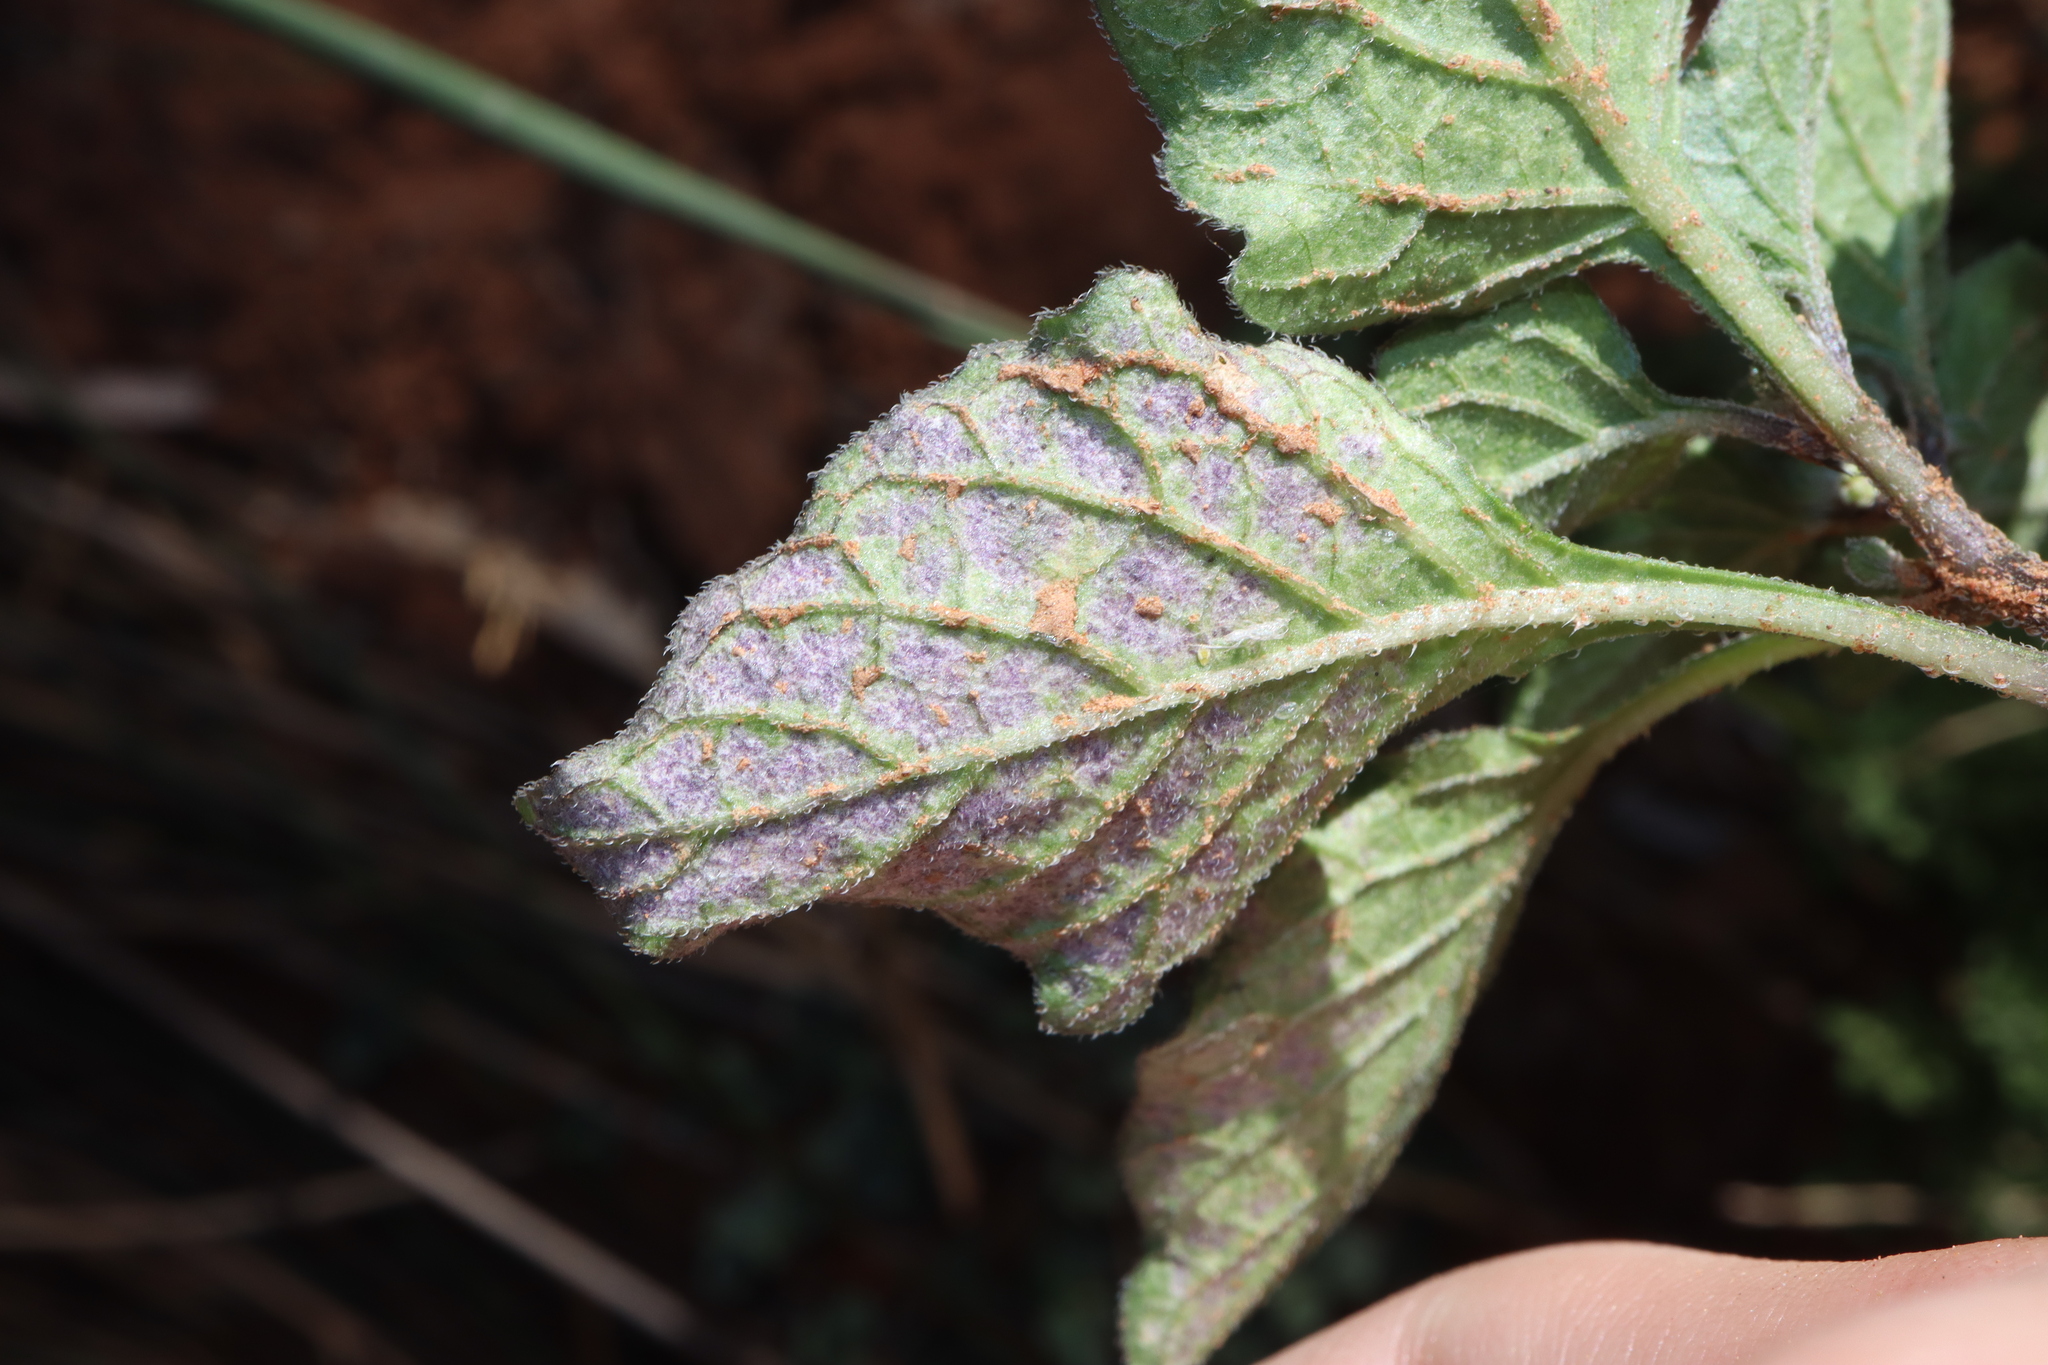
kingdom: Plantae
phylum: Tracheophyta
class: Magnoliopsida
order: Solanales
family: Solanaceae
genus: Solanum
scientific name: Solanum nigrum
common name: Black nightshade
